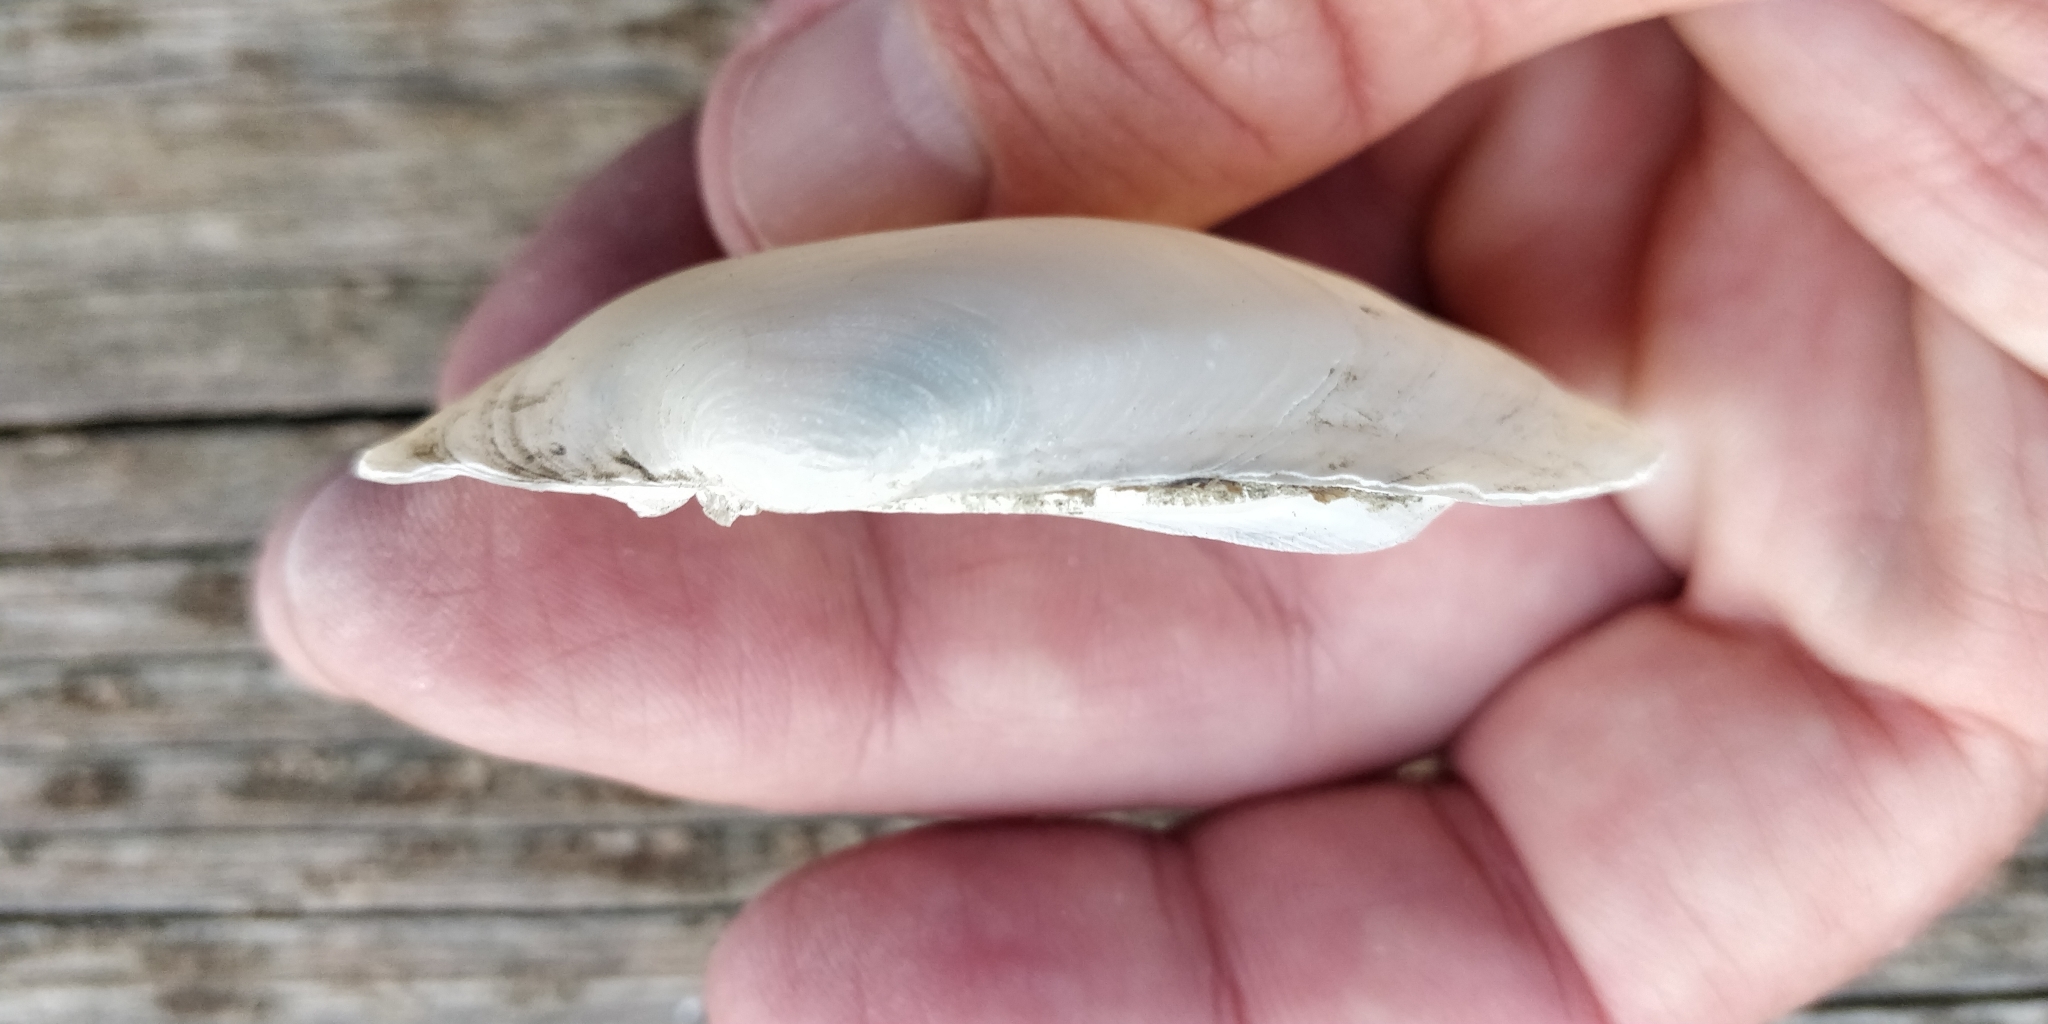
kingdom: Animalia
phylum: Mollusca
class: Bivalvia
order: Unionida
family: Unionidae
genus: Lampsilis
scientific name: Lampsilis siliquoidea
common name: Fatmucket
